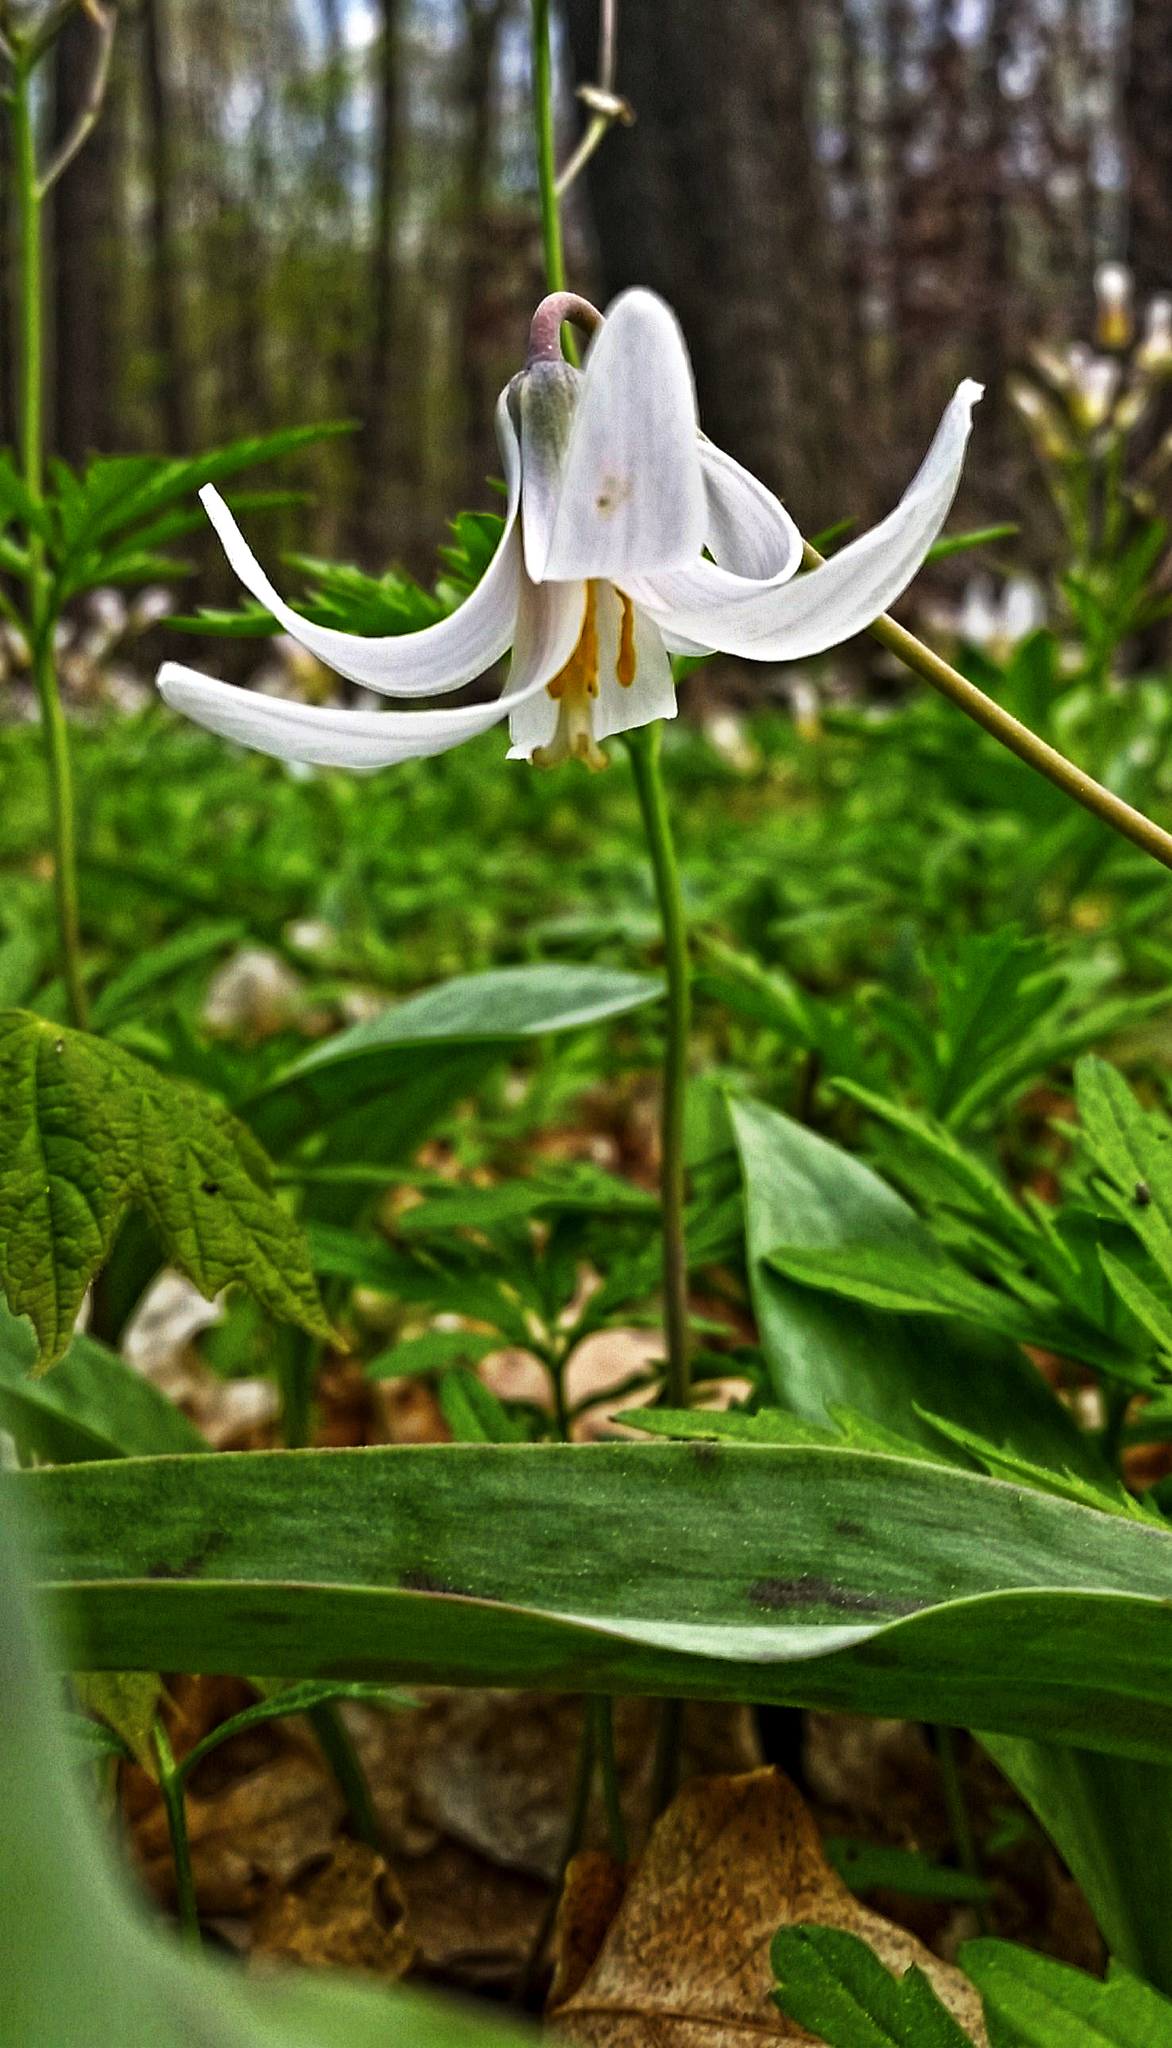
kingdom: Plantae
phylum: Tracheophyta
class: Liliopsida
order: Liliales
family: Liliaceae
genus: Erythronium
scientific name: Erythronium albidum
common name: White trout-lily
